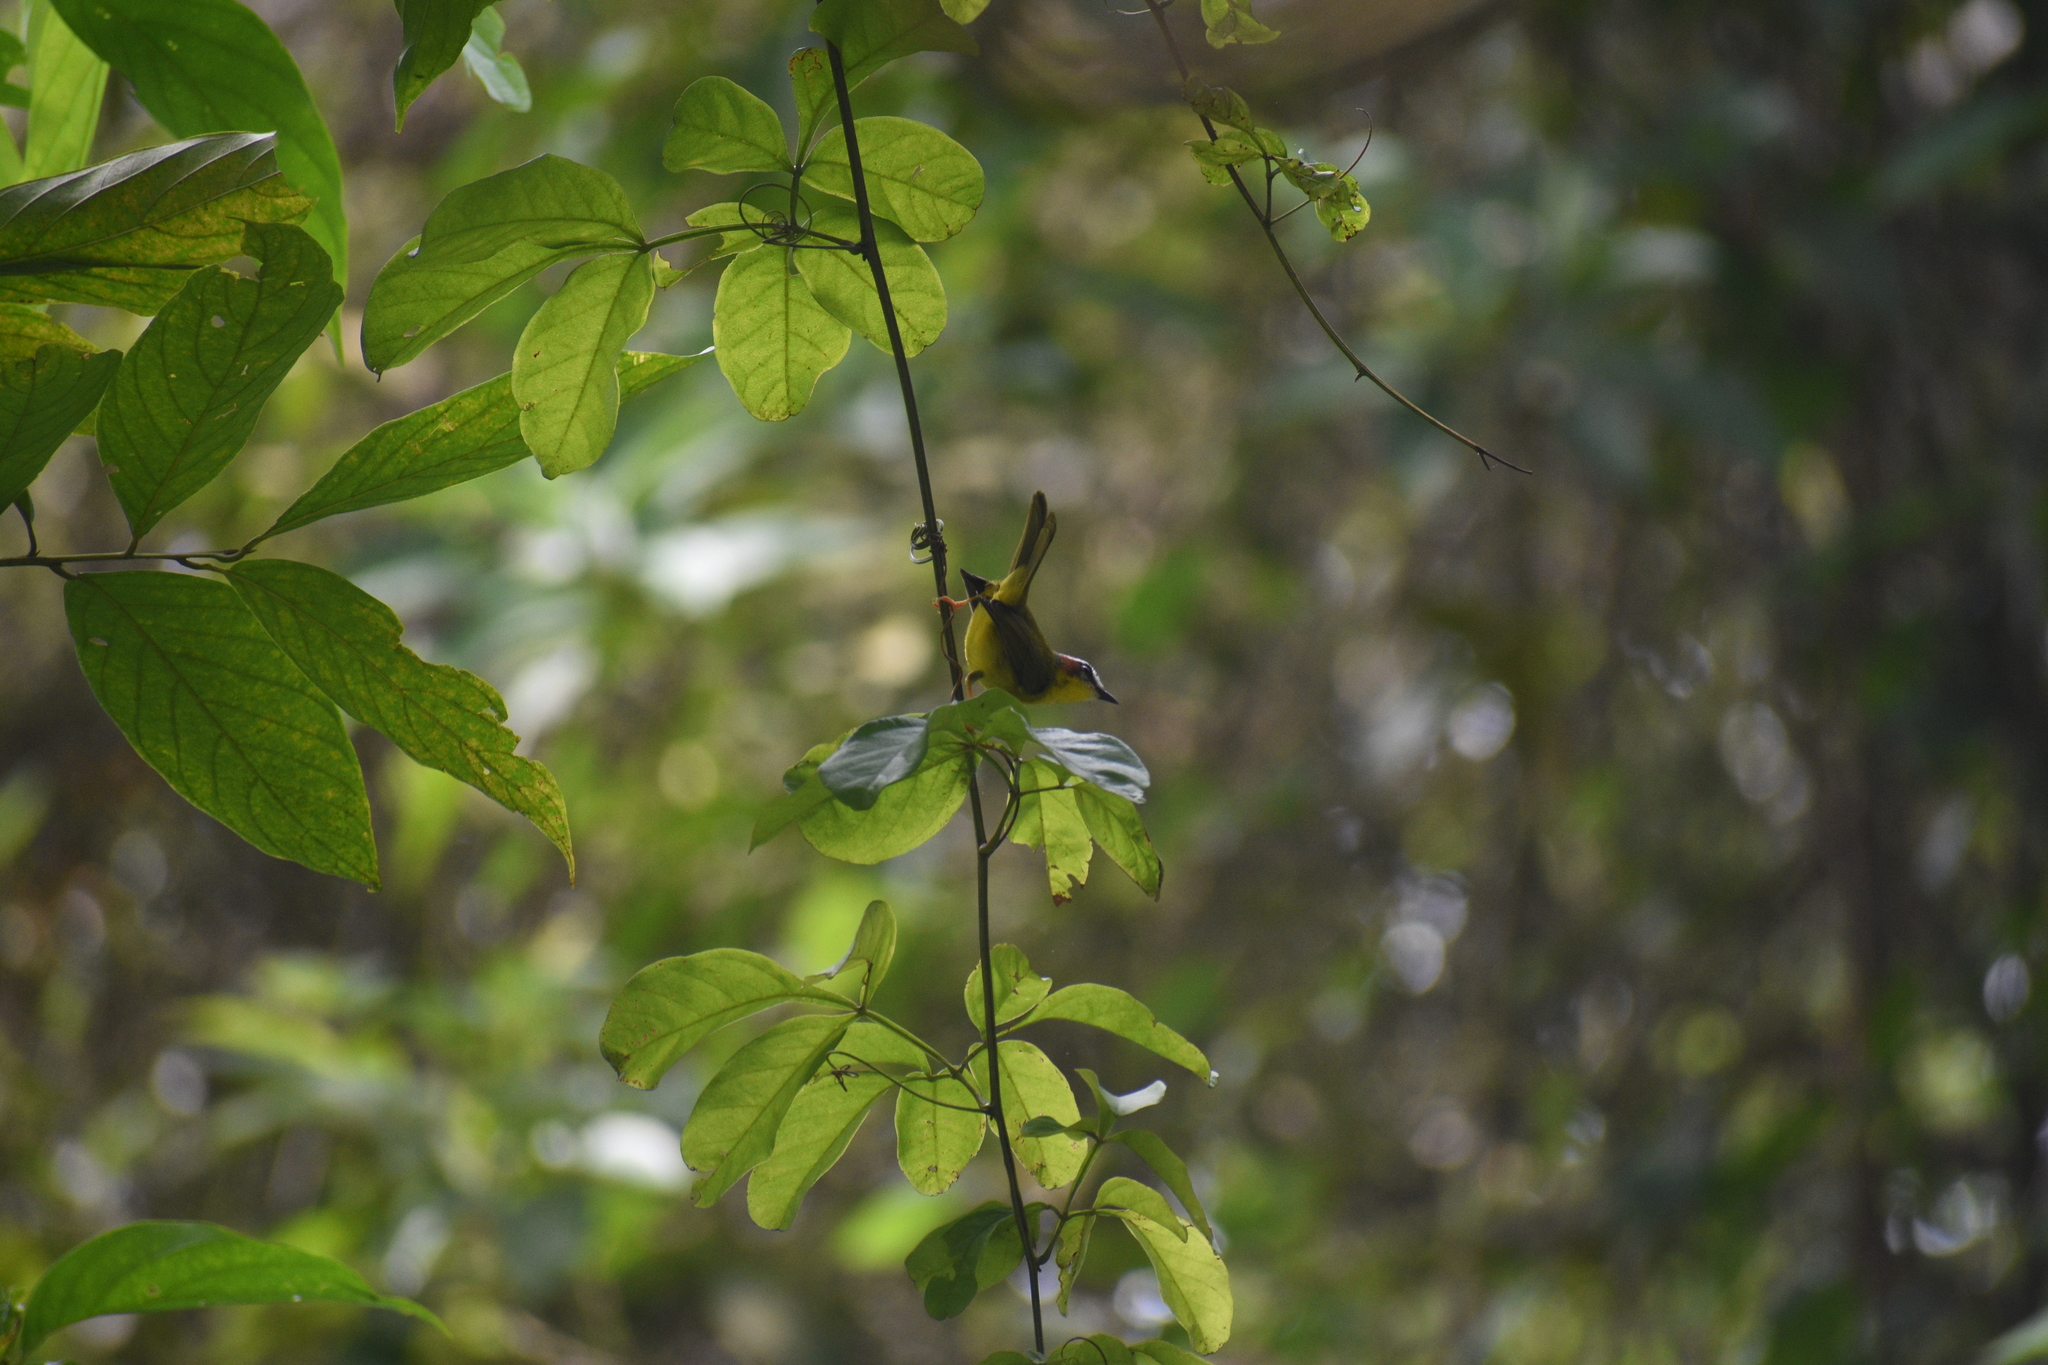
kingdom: Animalia
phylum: Chordata
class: Aves
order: Passeriformes
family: Parulidae
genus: Basileuterus
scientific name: Basileuterus rufifrons
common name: Rufous-capped warbler
